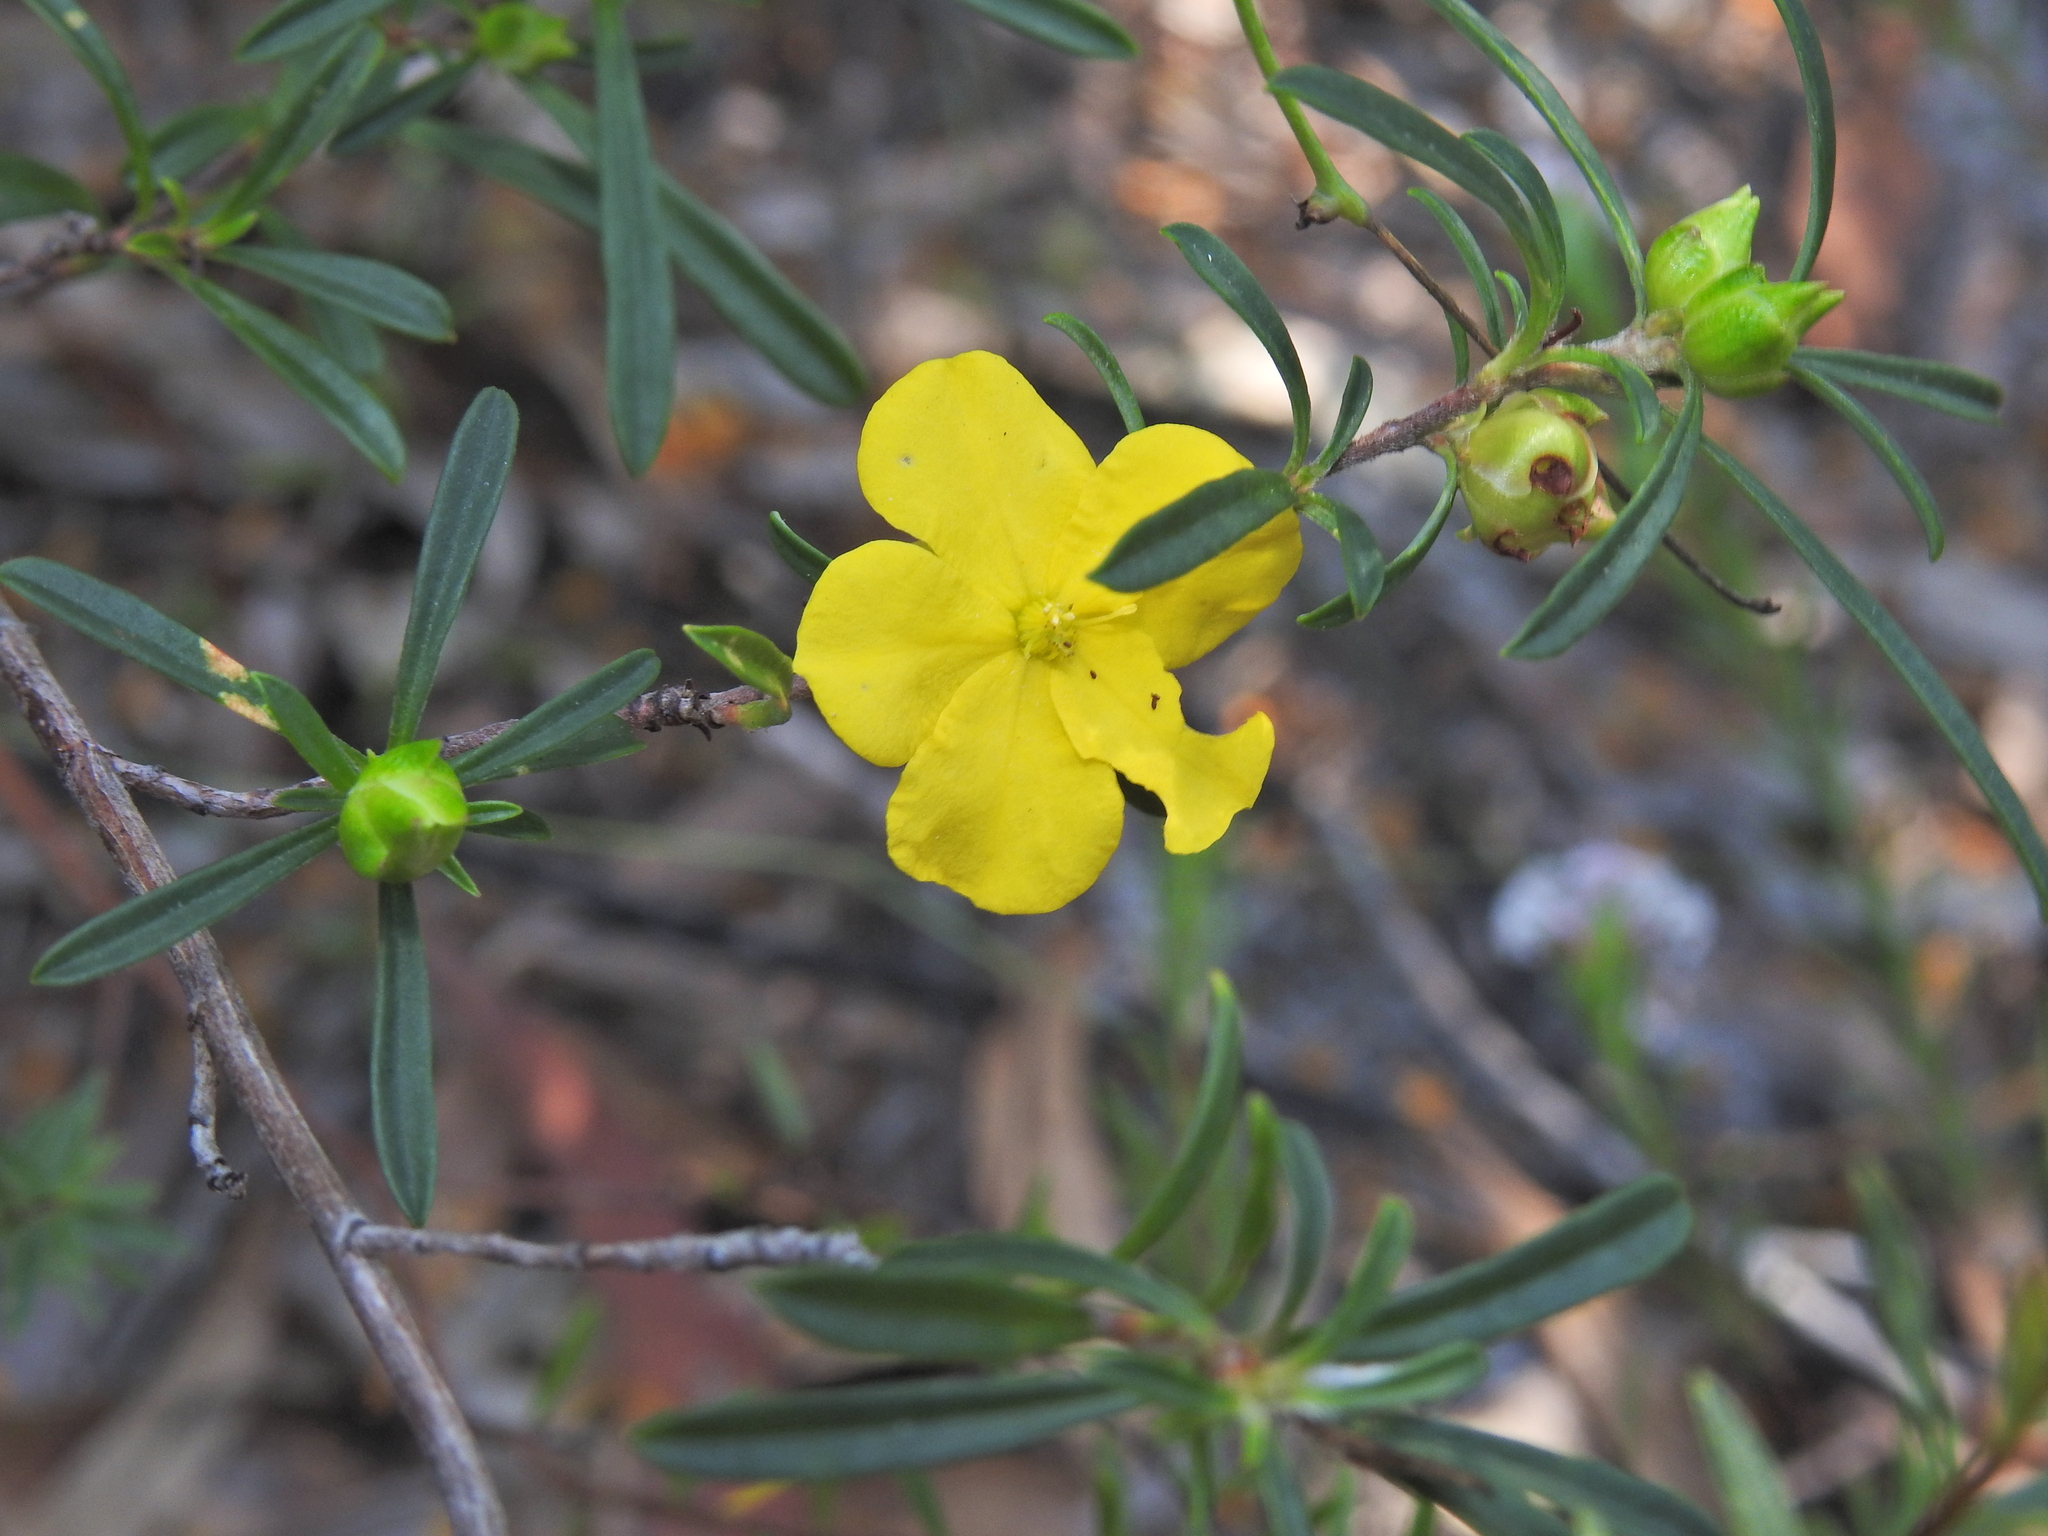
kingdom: Plantae
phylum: Tracheophyta
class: Magnoliopsida
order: Dilleniales
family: Dilleniaceae
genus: Hibbertia
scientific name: Hibbertia linearis
